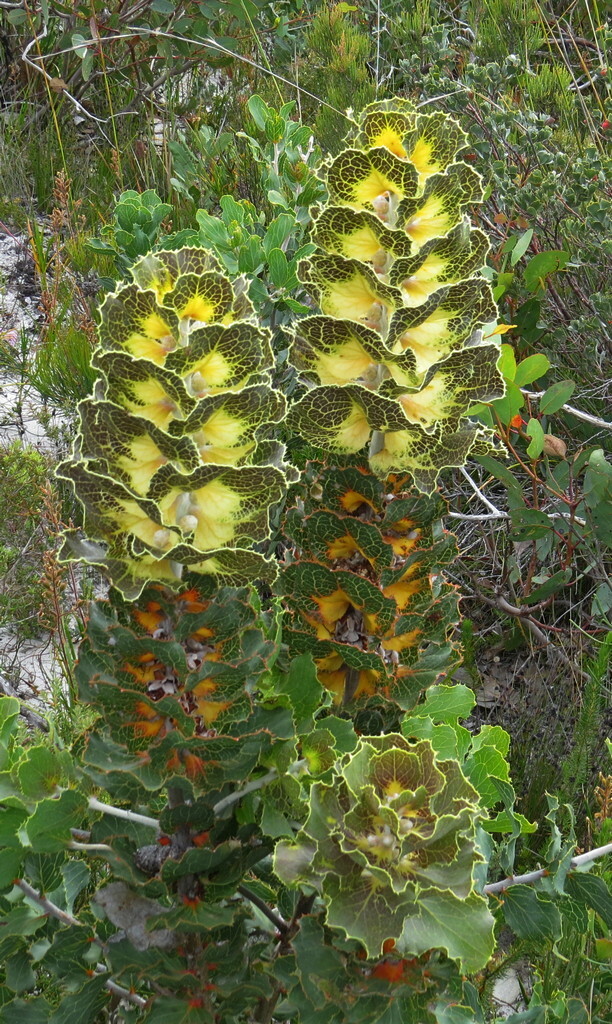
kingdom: Plantae
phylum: Tracheophyta
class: Magnoliopsida
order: Proteales
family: Proteaceae
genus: Hakea
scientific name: Hakea victoria
